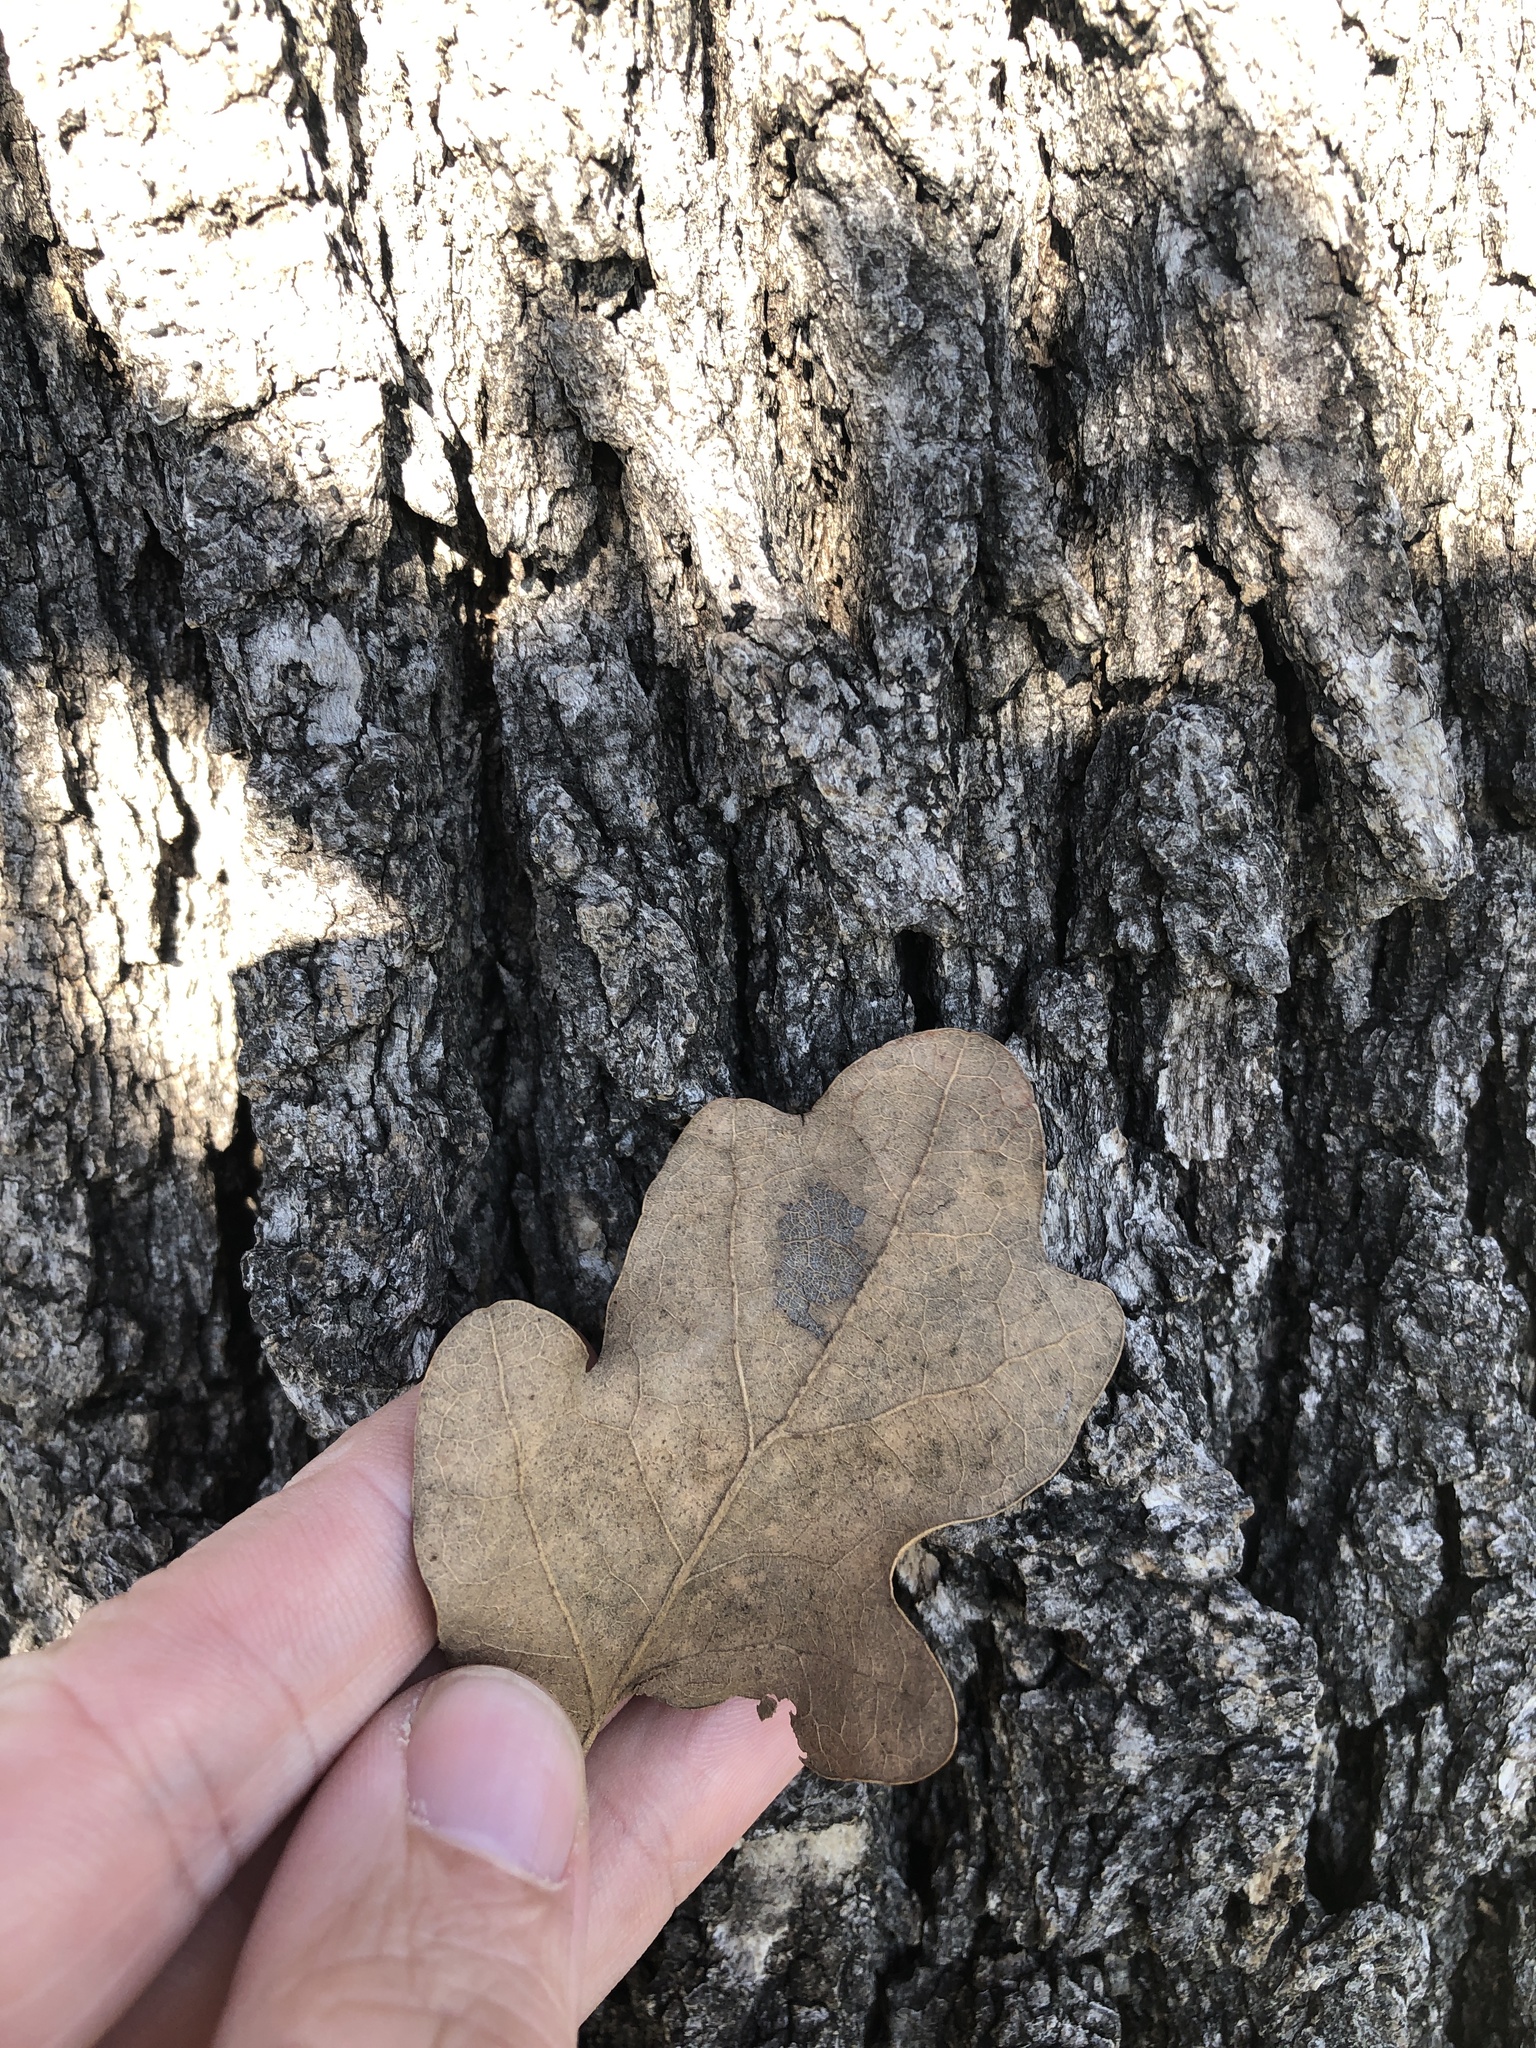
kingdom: Plantae
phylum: Tracheophyta
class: Magnoliopsida
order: Fagales
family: Fagaceae
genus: Quercus
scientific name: Quercus stellata
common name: Post oak
